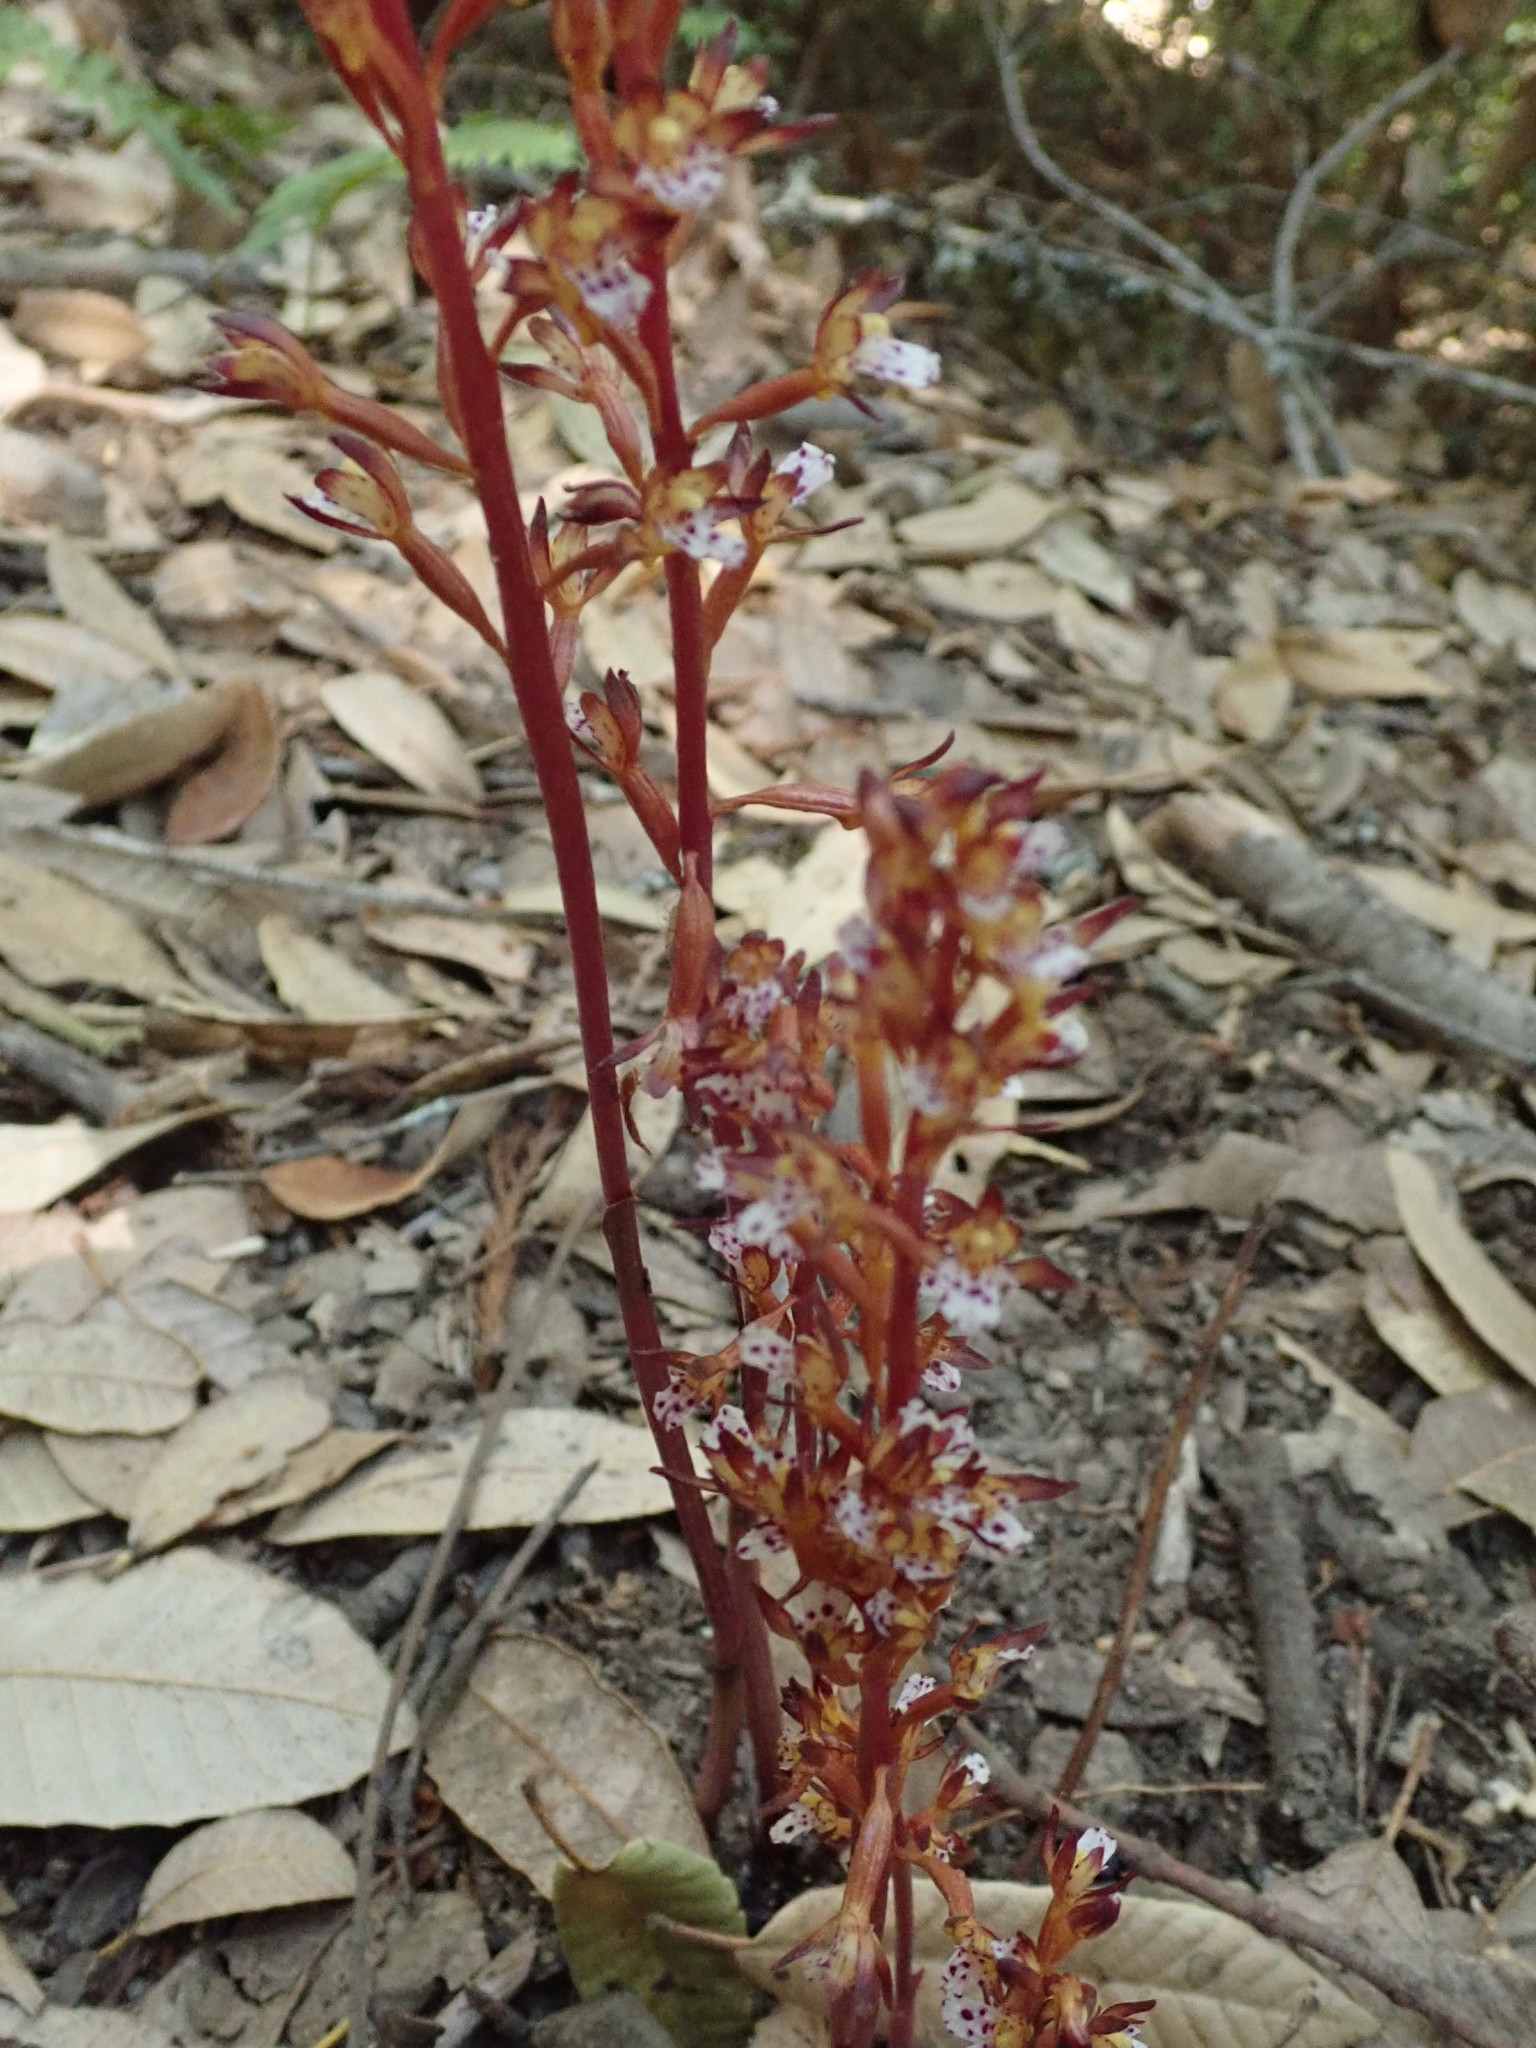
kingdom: Plantae
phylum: Tracheophyta
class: Liliopsida
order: Asparagales
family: Orchidaceae
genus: Corallorhiza
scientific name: Corallorhiza maculata
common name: Spotted coralroot
